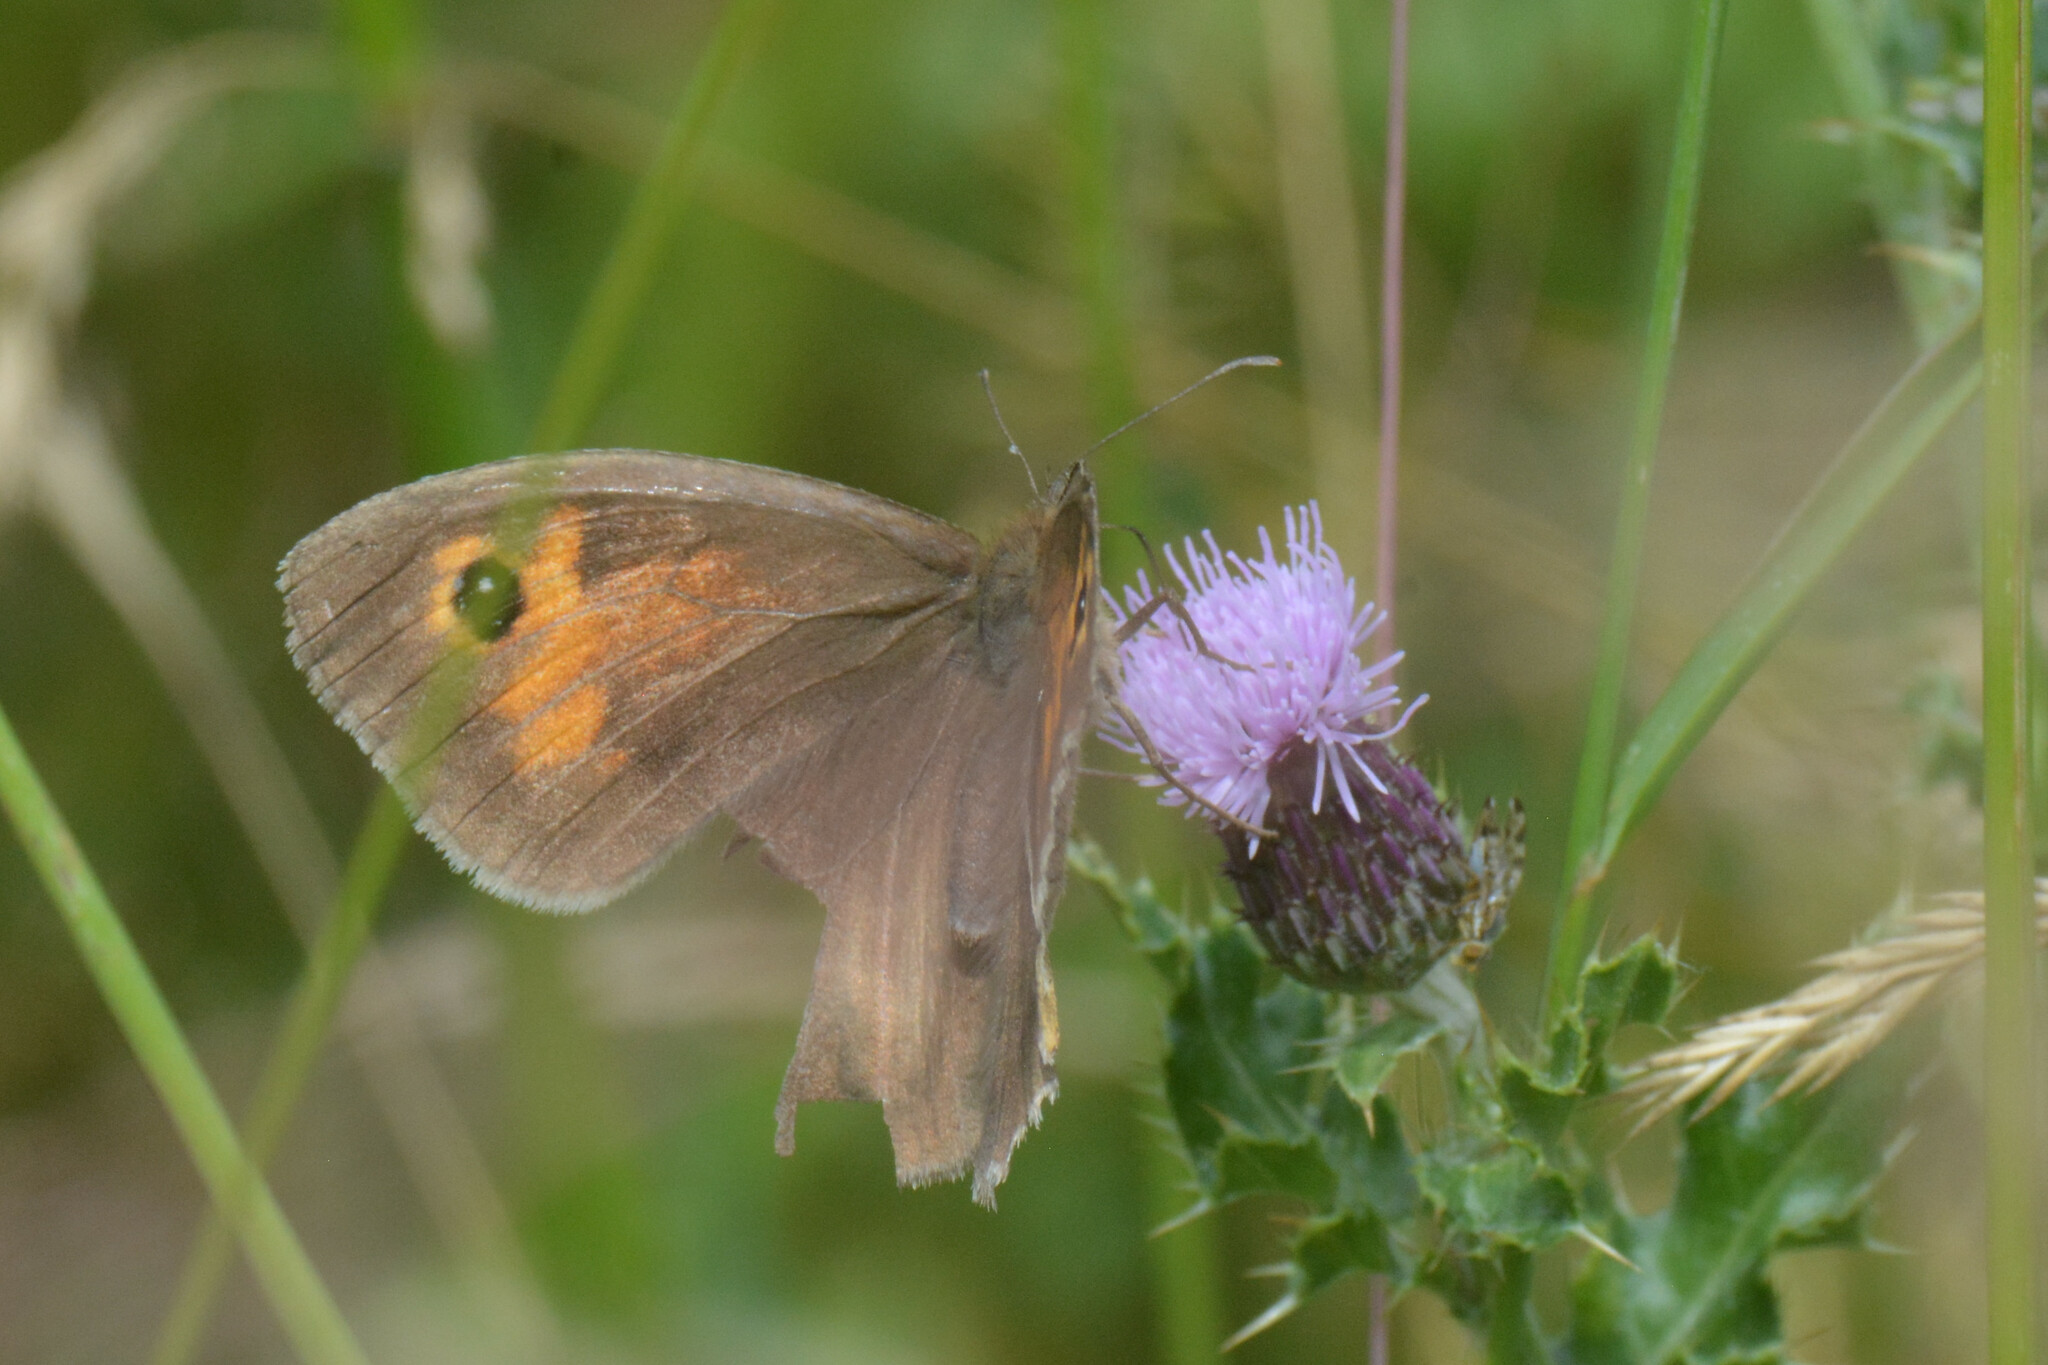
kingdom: Animalia
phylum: Arthropoda
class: Insecta
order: Lepidoptera
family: Nymphalidae
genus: Maniola
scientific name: Maniola jurtina
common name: Meadow brown
